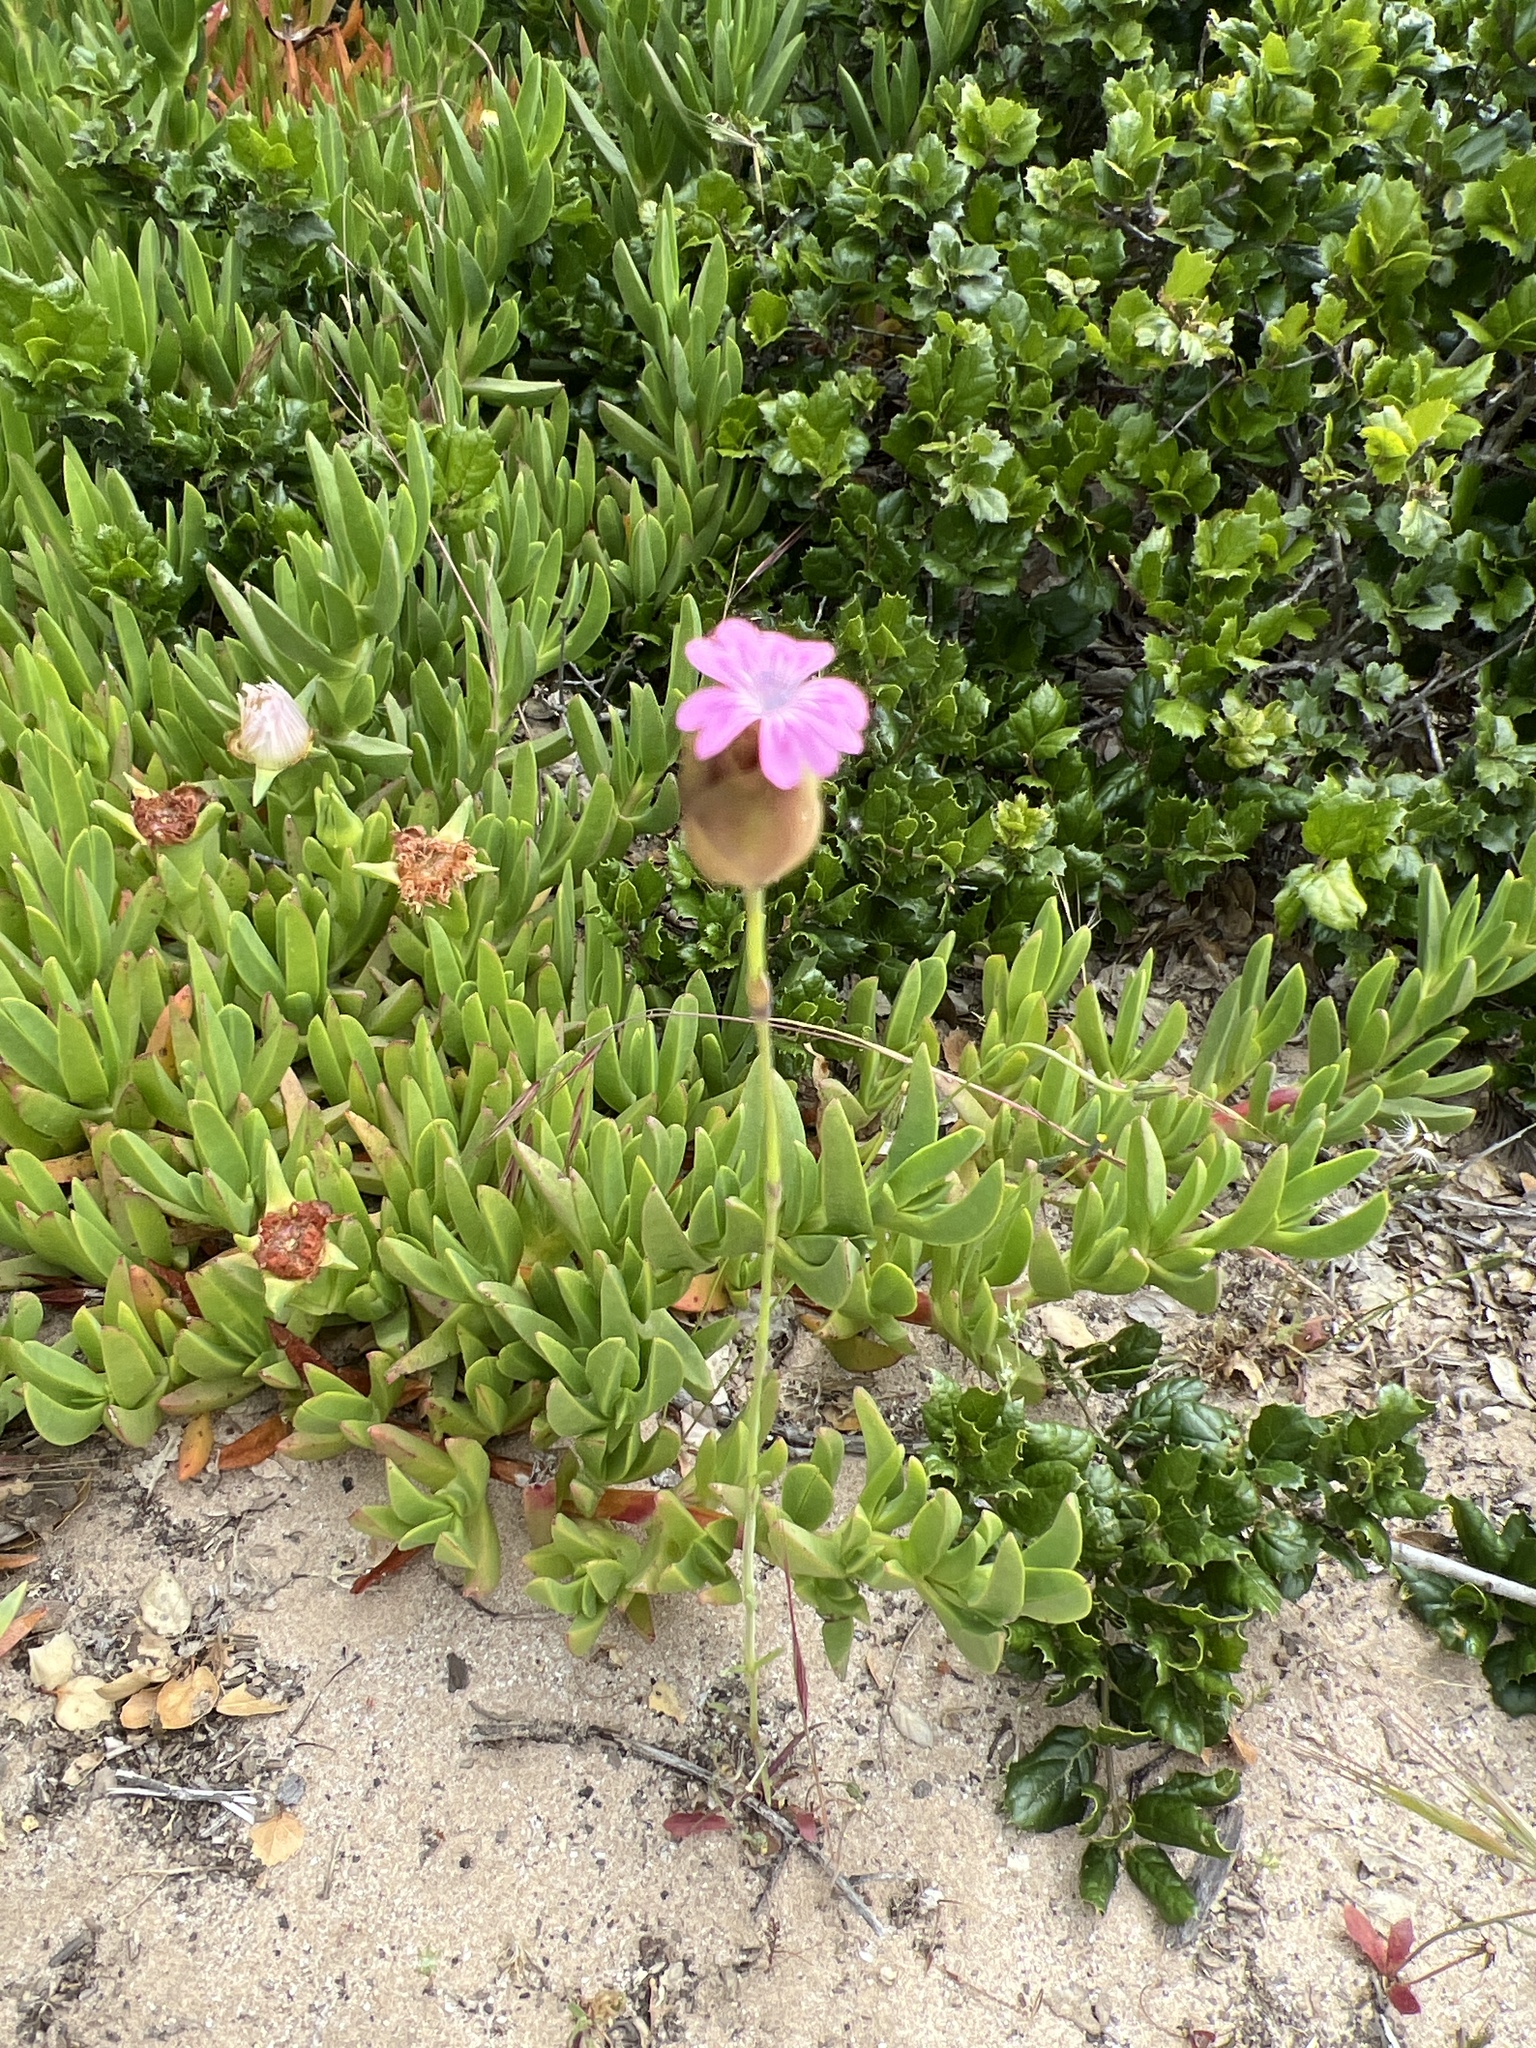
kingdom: Plantae
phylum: Tracheophyta
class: Magnoliopsida
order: Caryophyllales
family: Caryophyllaceae
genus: Petrorhagia
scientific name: Petrorhagia dubia
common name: Hairypink
